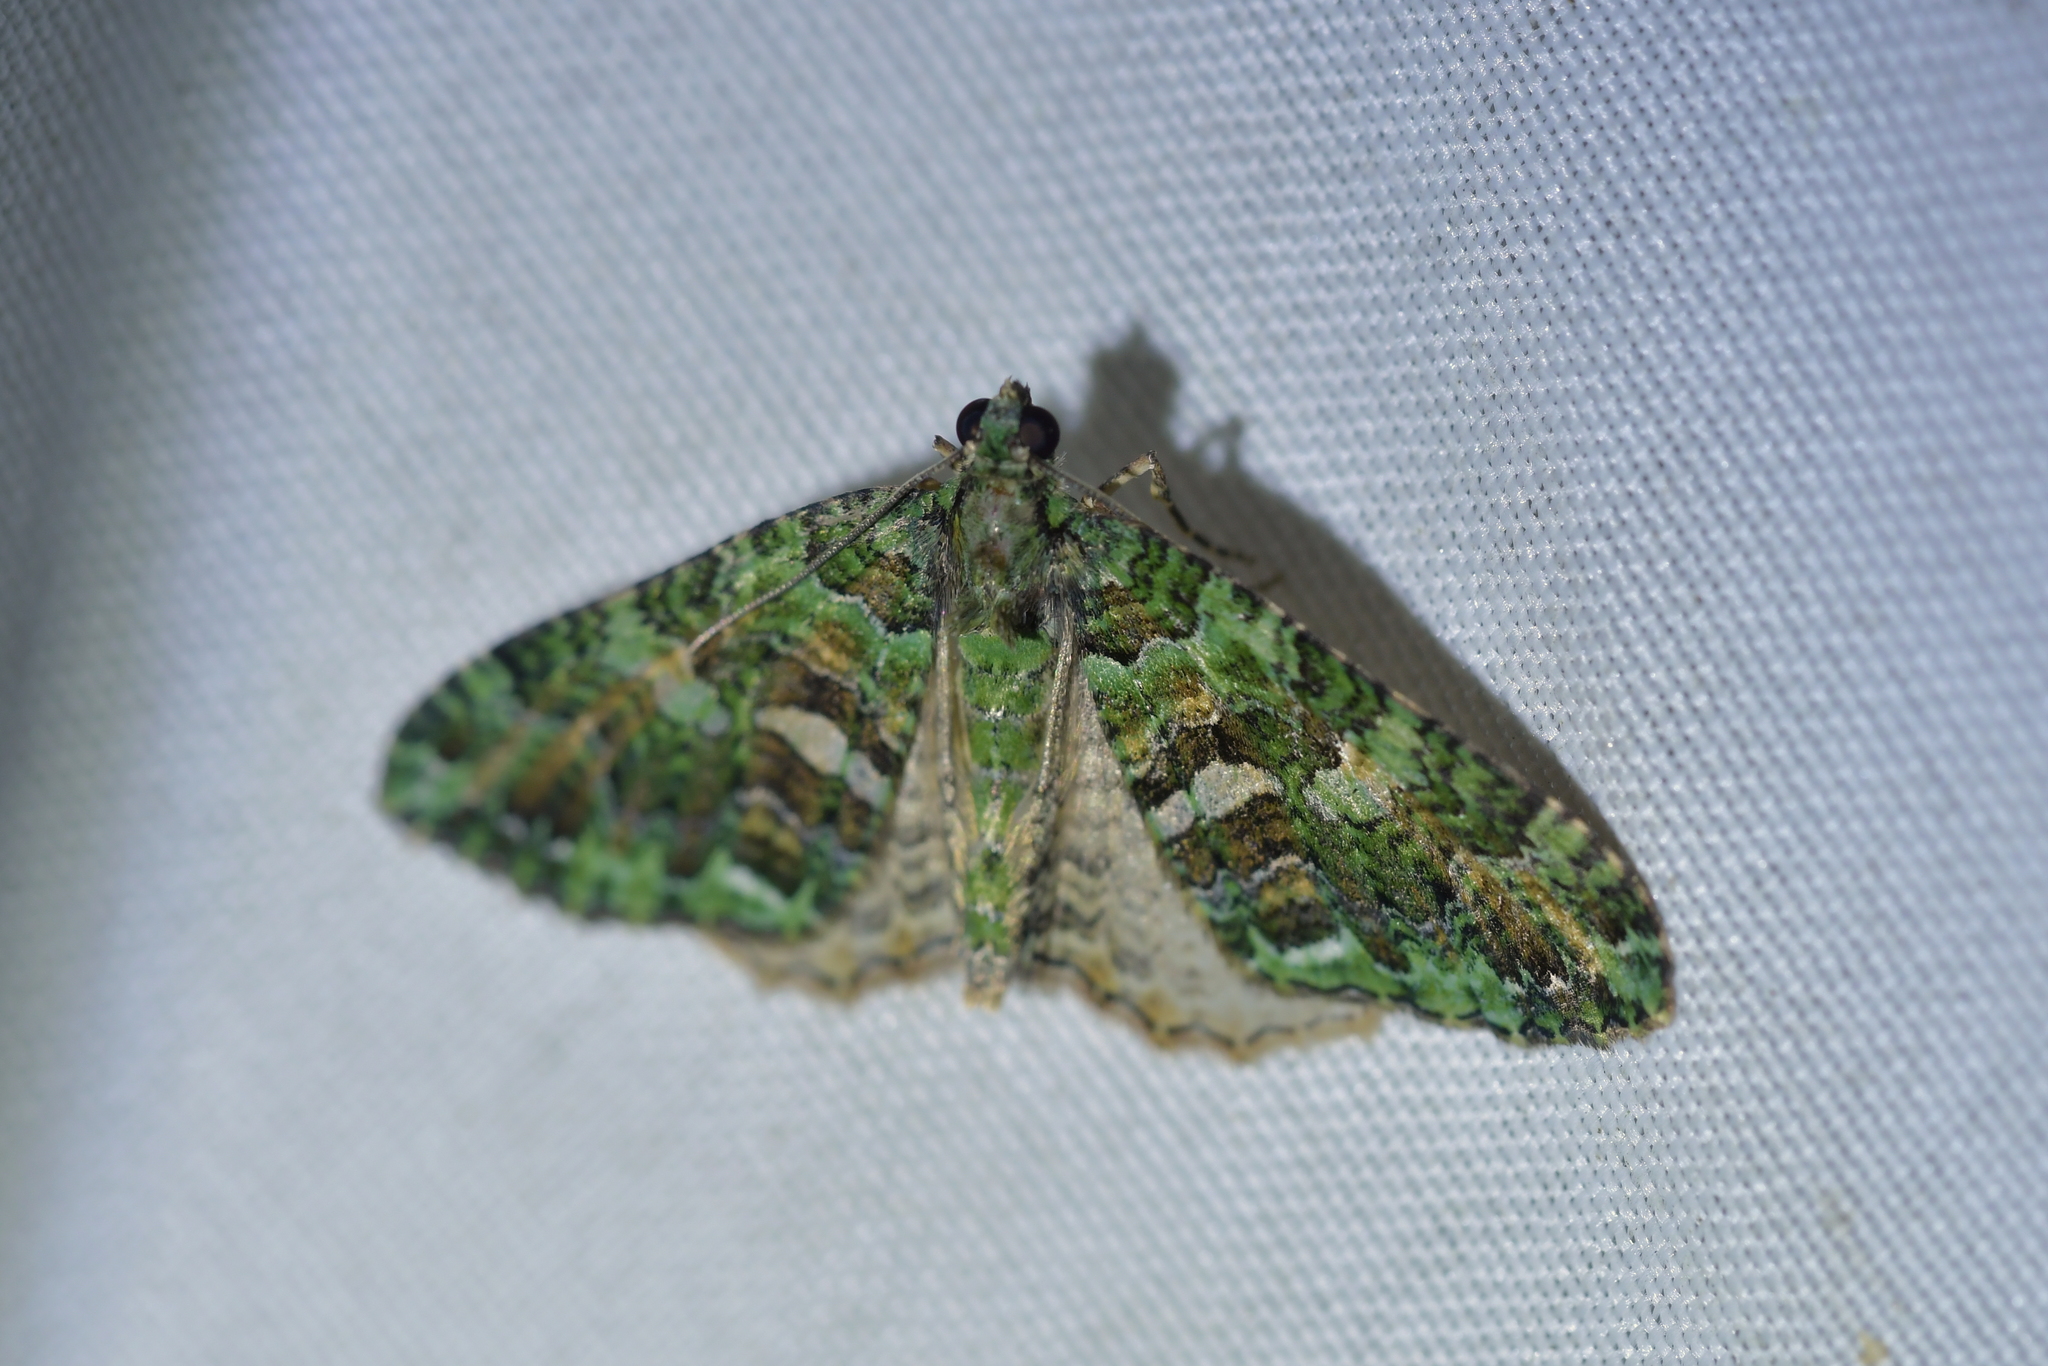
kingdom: Animalia
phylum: Arthropoda
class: Insecta
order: Lepidoptera
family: Geometridae
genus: Austrocidaria
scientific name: Austrocidaria similata
